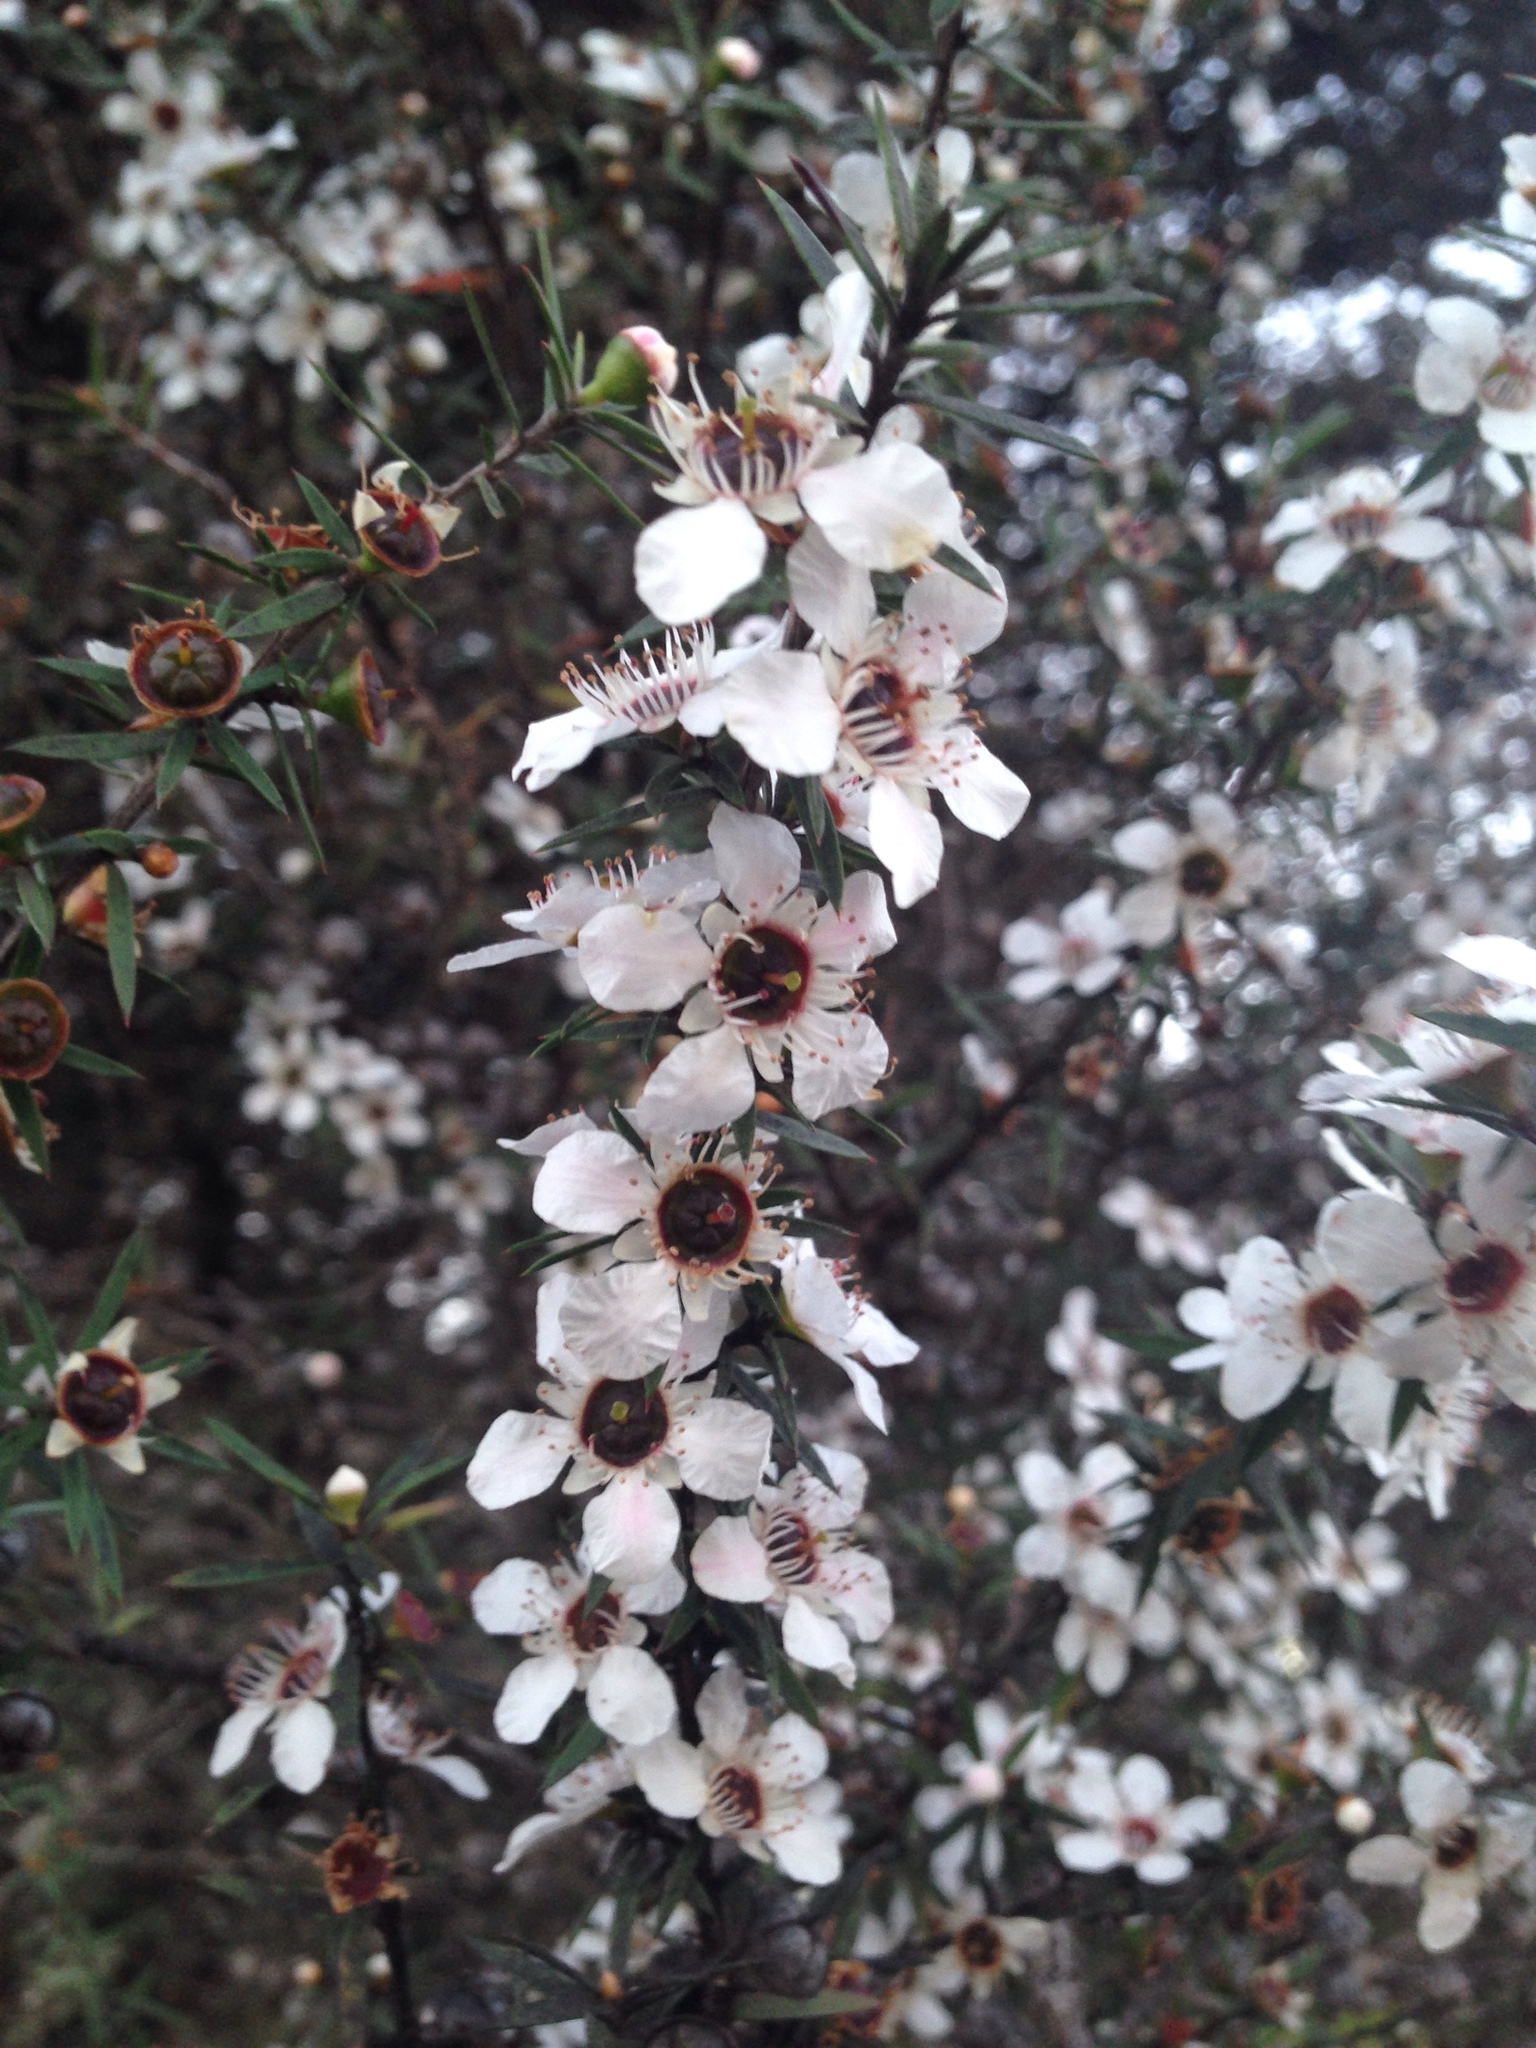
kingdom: Plantae
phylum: Tracheophyta
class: Magnoliopsida
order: Myrtales
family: Myrtaceae
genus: Leptospermum
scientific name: Leptospermum scoparium
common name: Broom tea-tree
